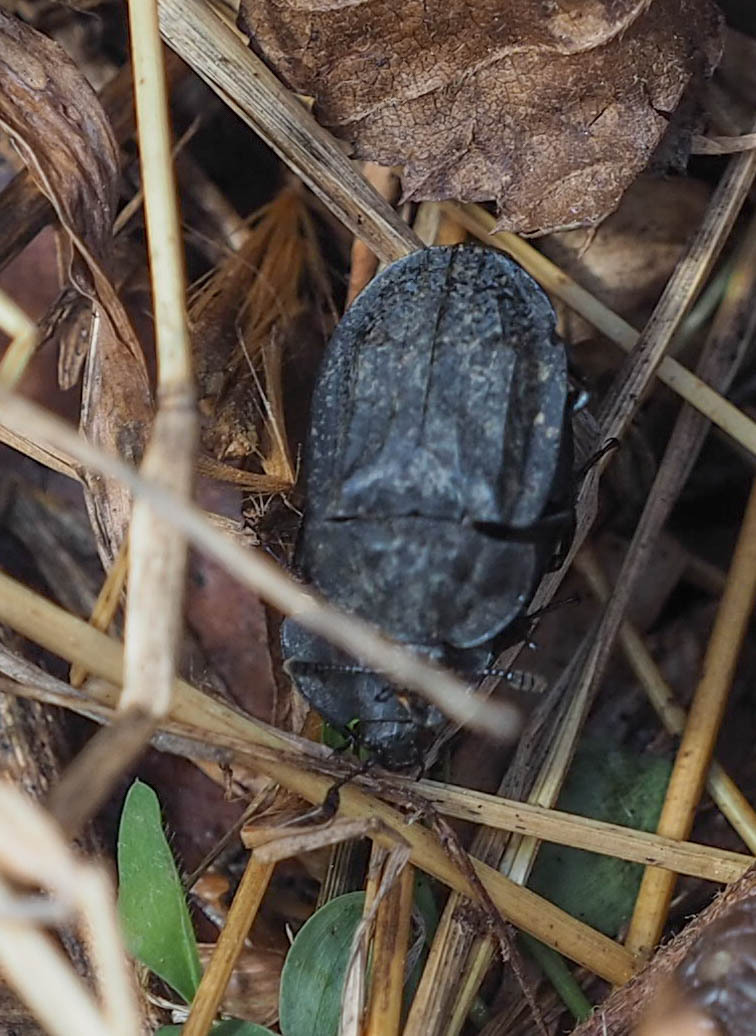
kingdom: Animalia
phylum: Arthropoda
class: Insecta
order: Coleoptera
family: Staphylinidae
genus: Oiceoptoma
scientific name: Oiceoptoma inaequale
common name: Ridged carrion beetle
